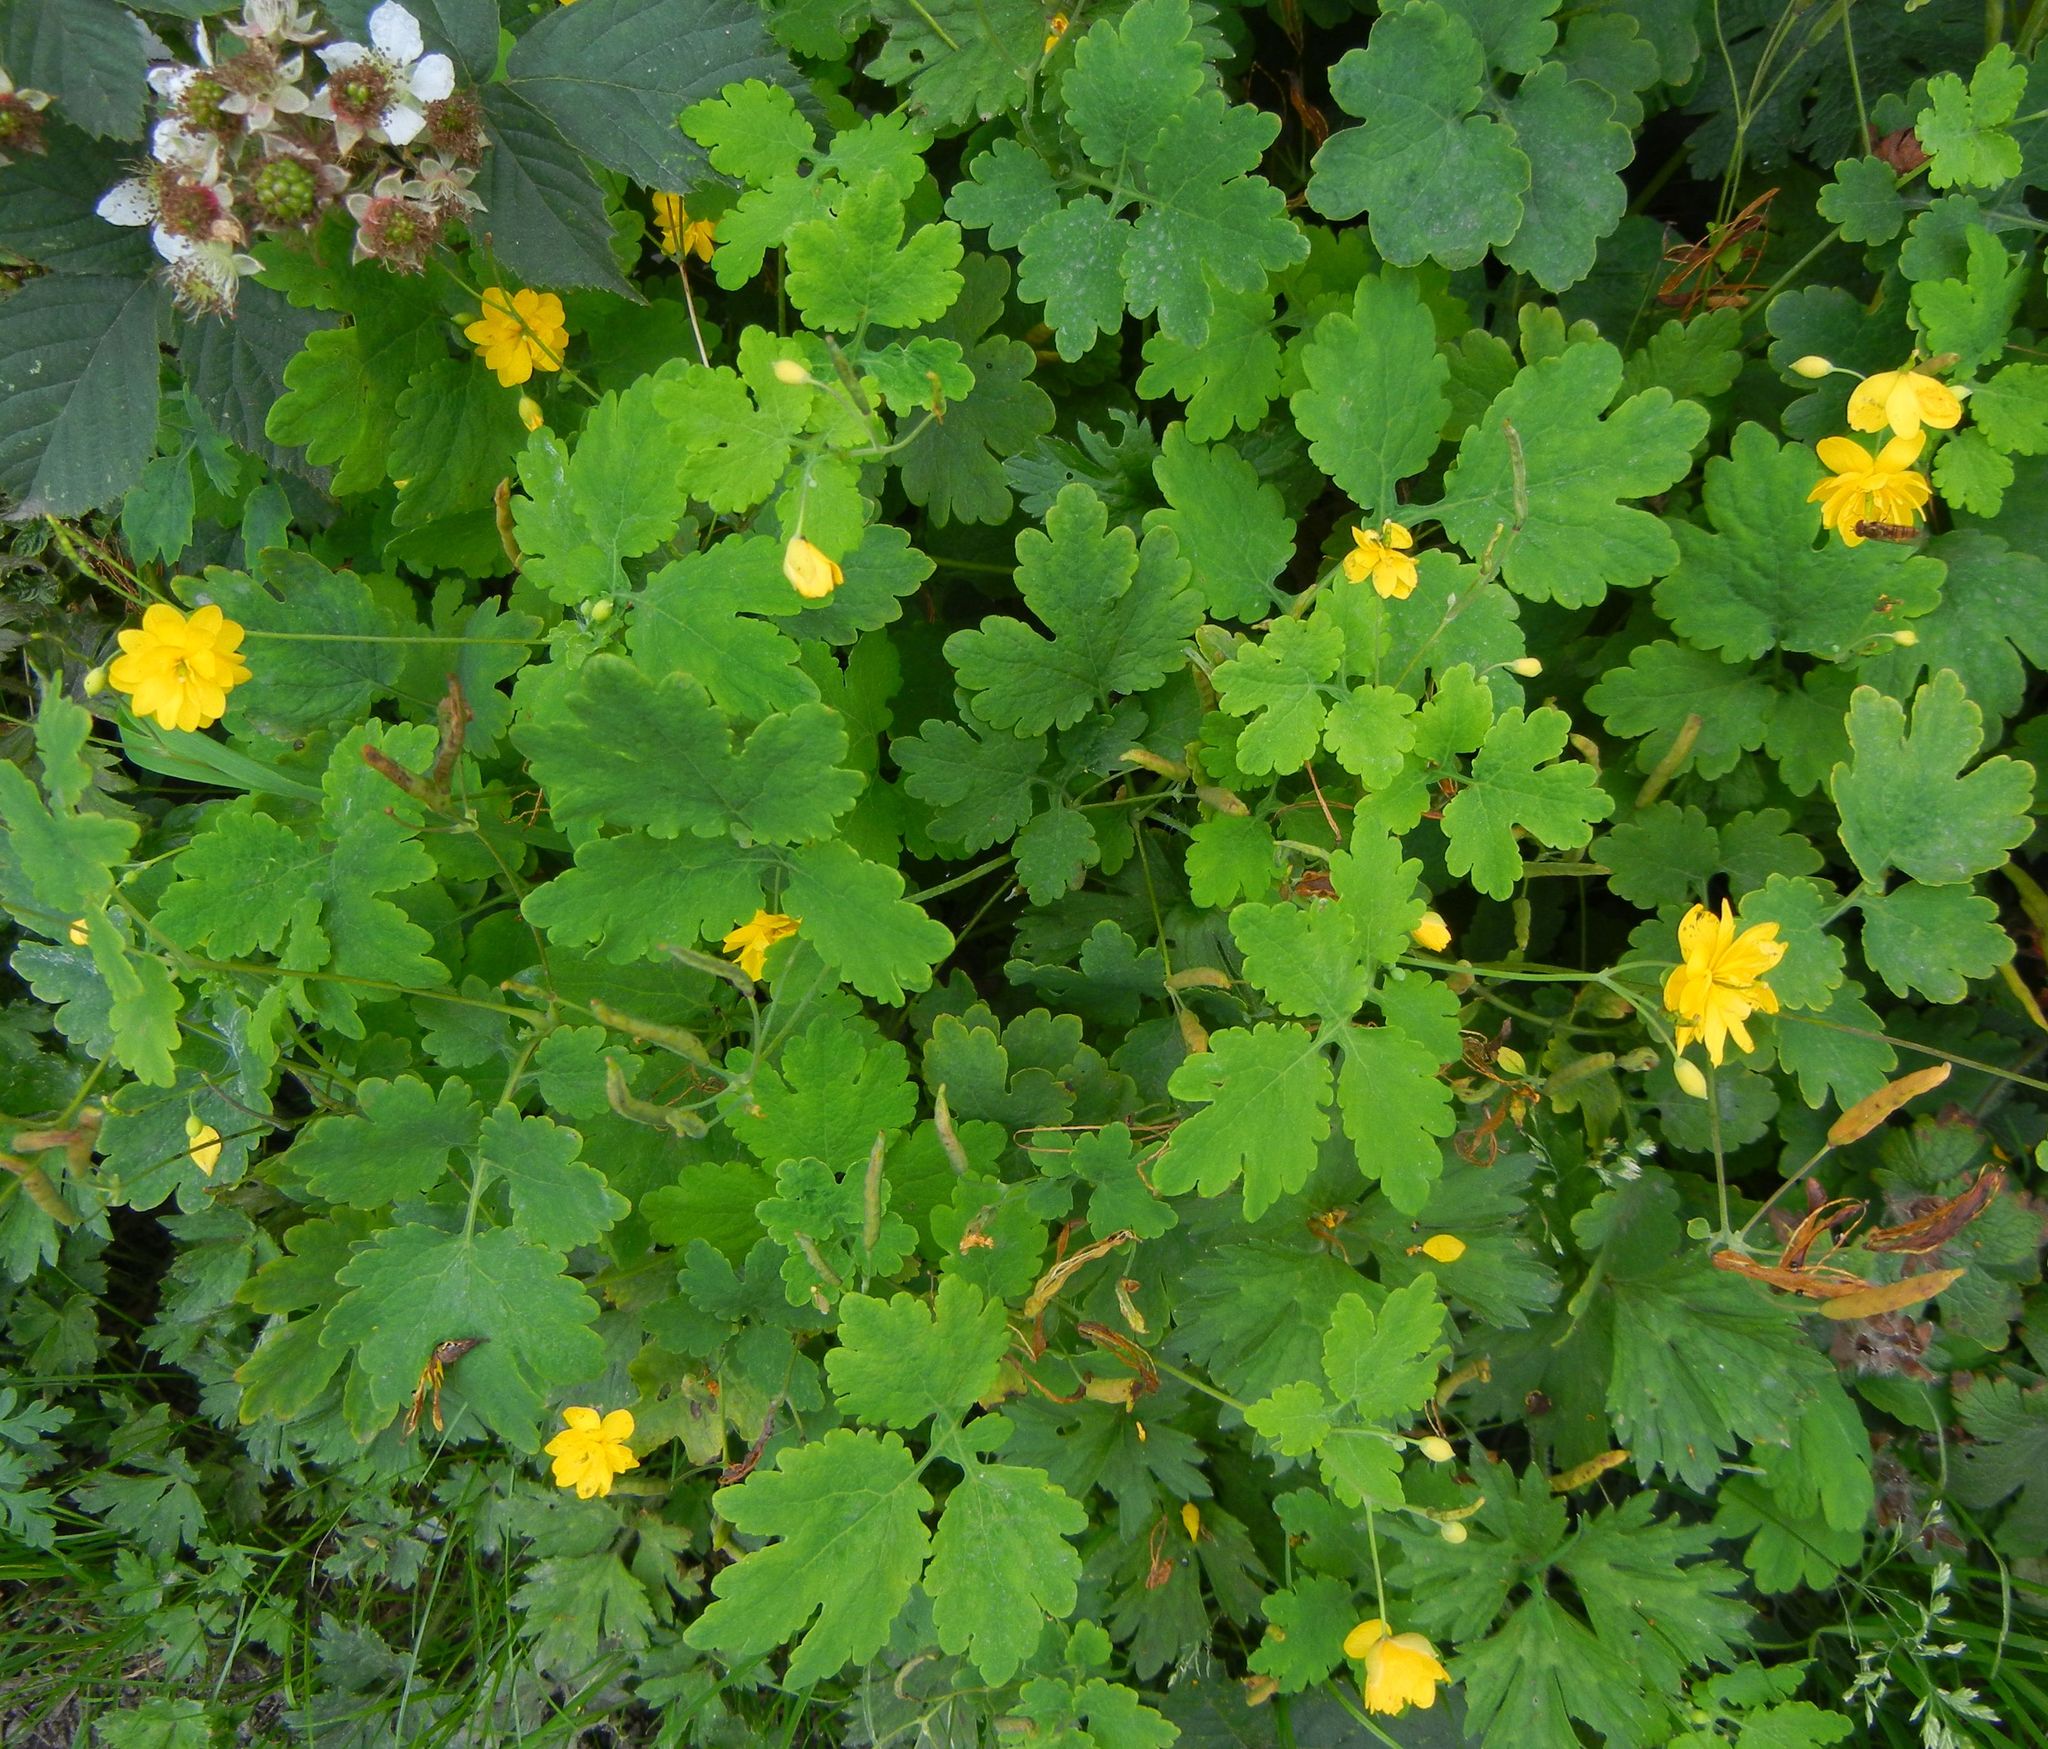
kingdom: Plantae
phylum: Tracheophyta
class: Magnoliopsida
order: Ranunculales
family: Papaveraceae
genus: Chelidonium
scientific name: Chelidonium majus
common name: Greater celandine
